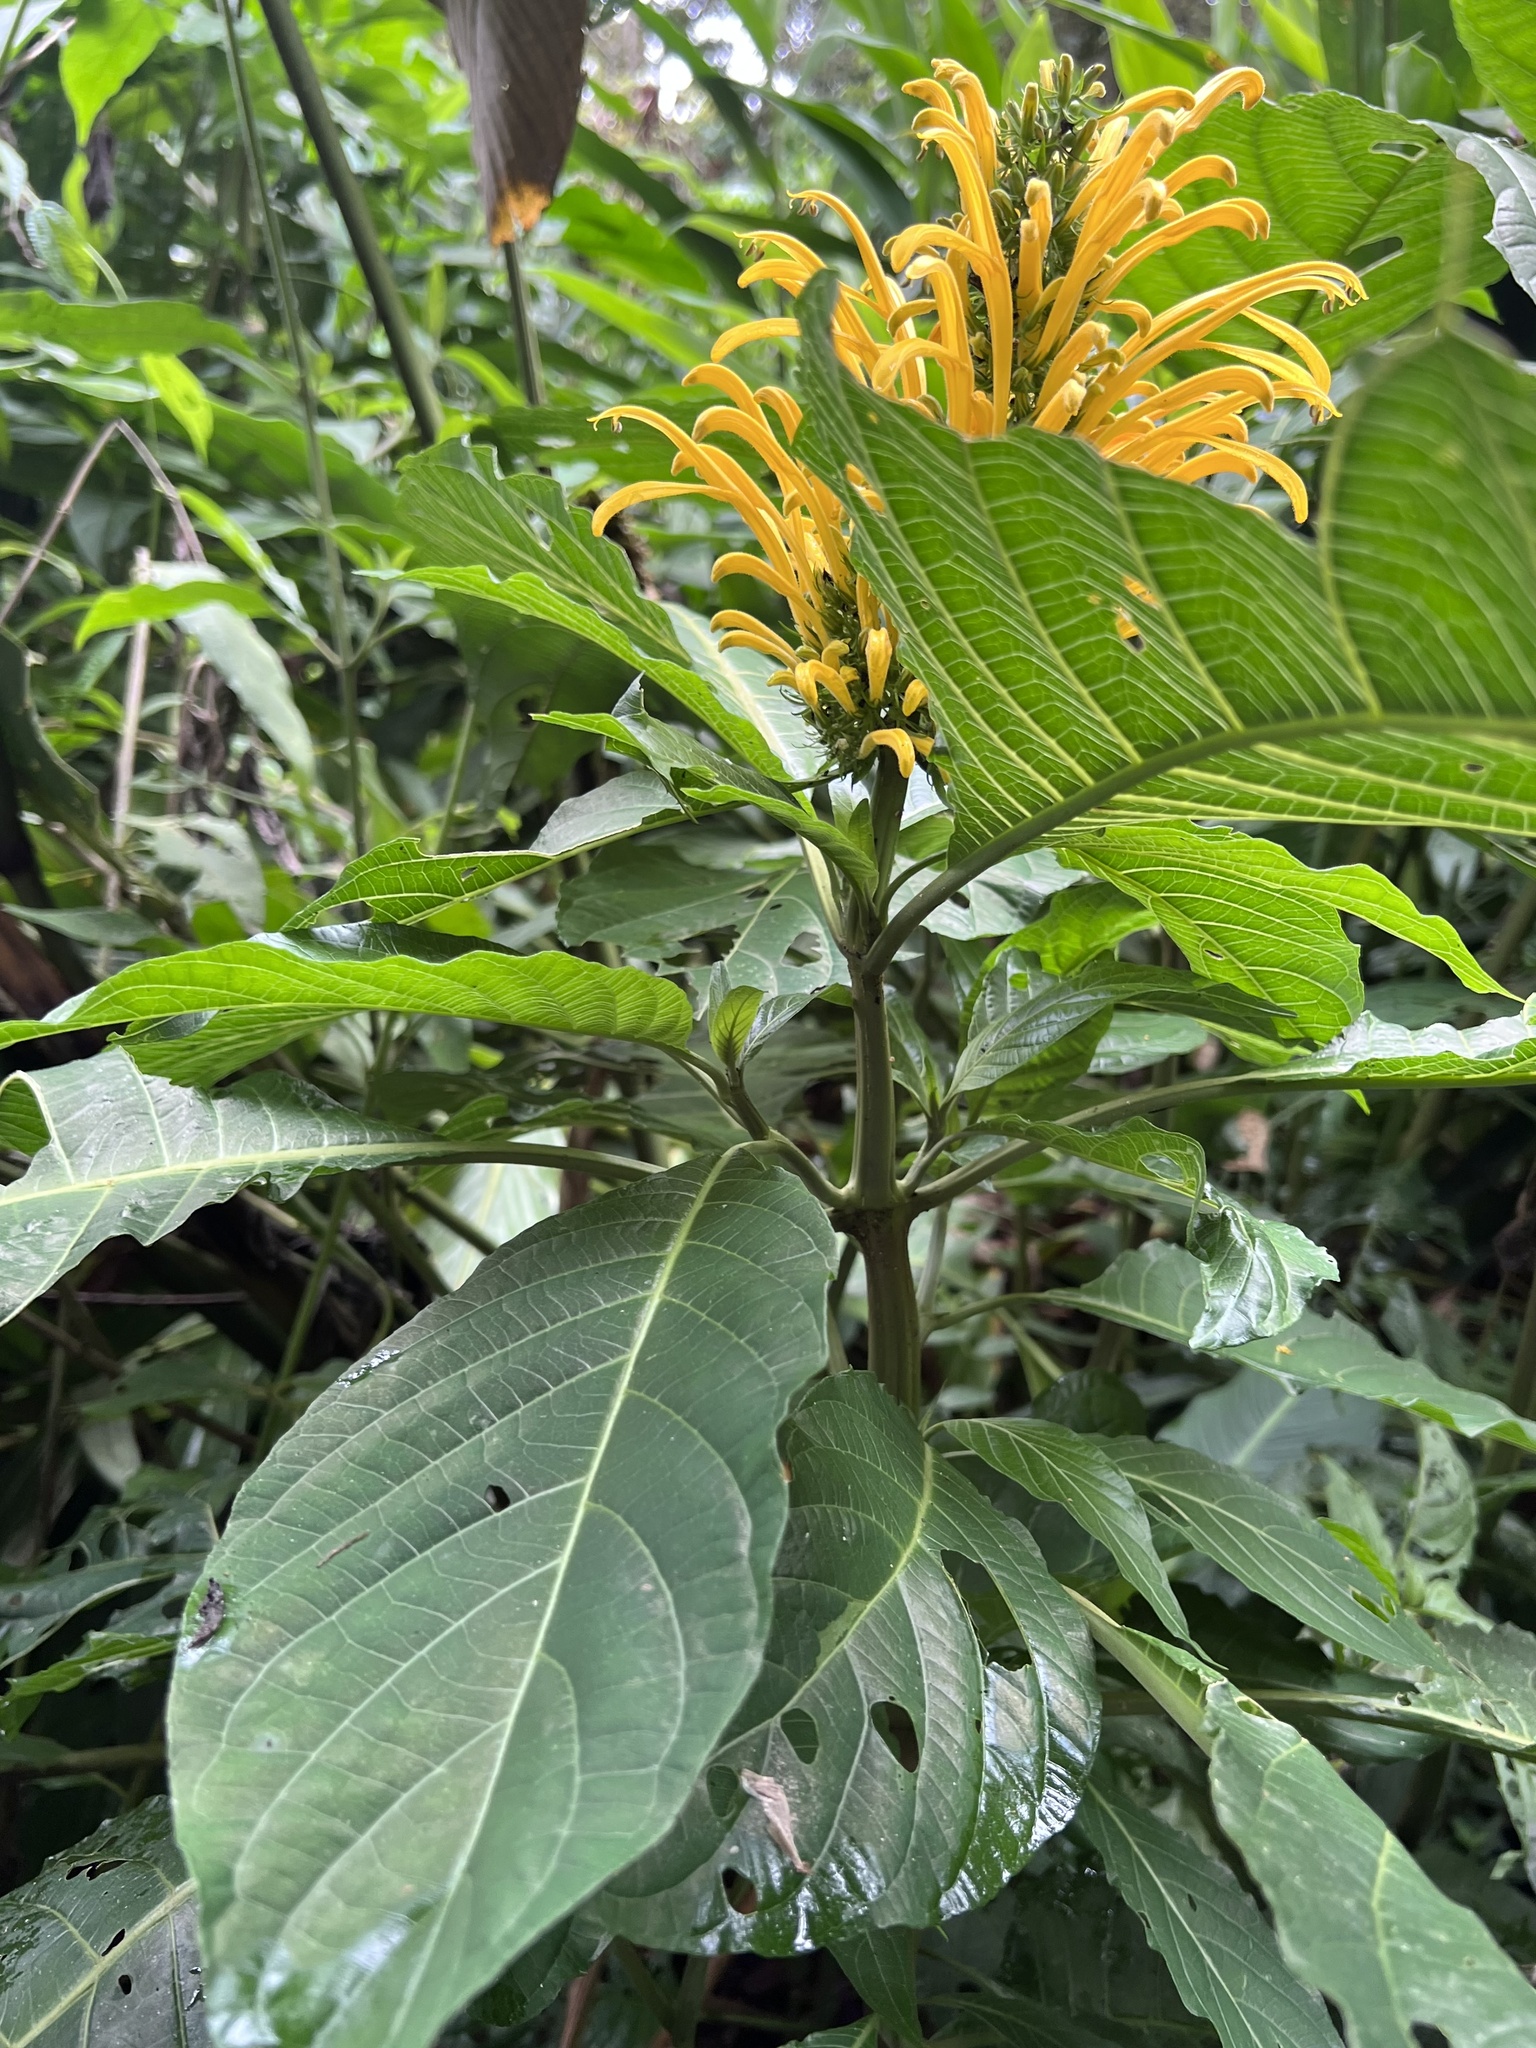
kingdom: Plantae
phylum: Tracheophyta
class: Magnoliopsida
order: Lamiales
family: Acanthaceae
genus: Justicia
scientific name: Justicia aurea
